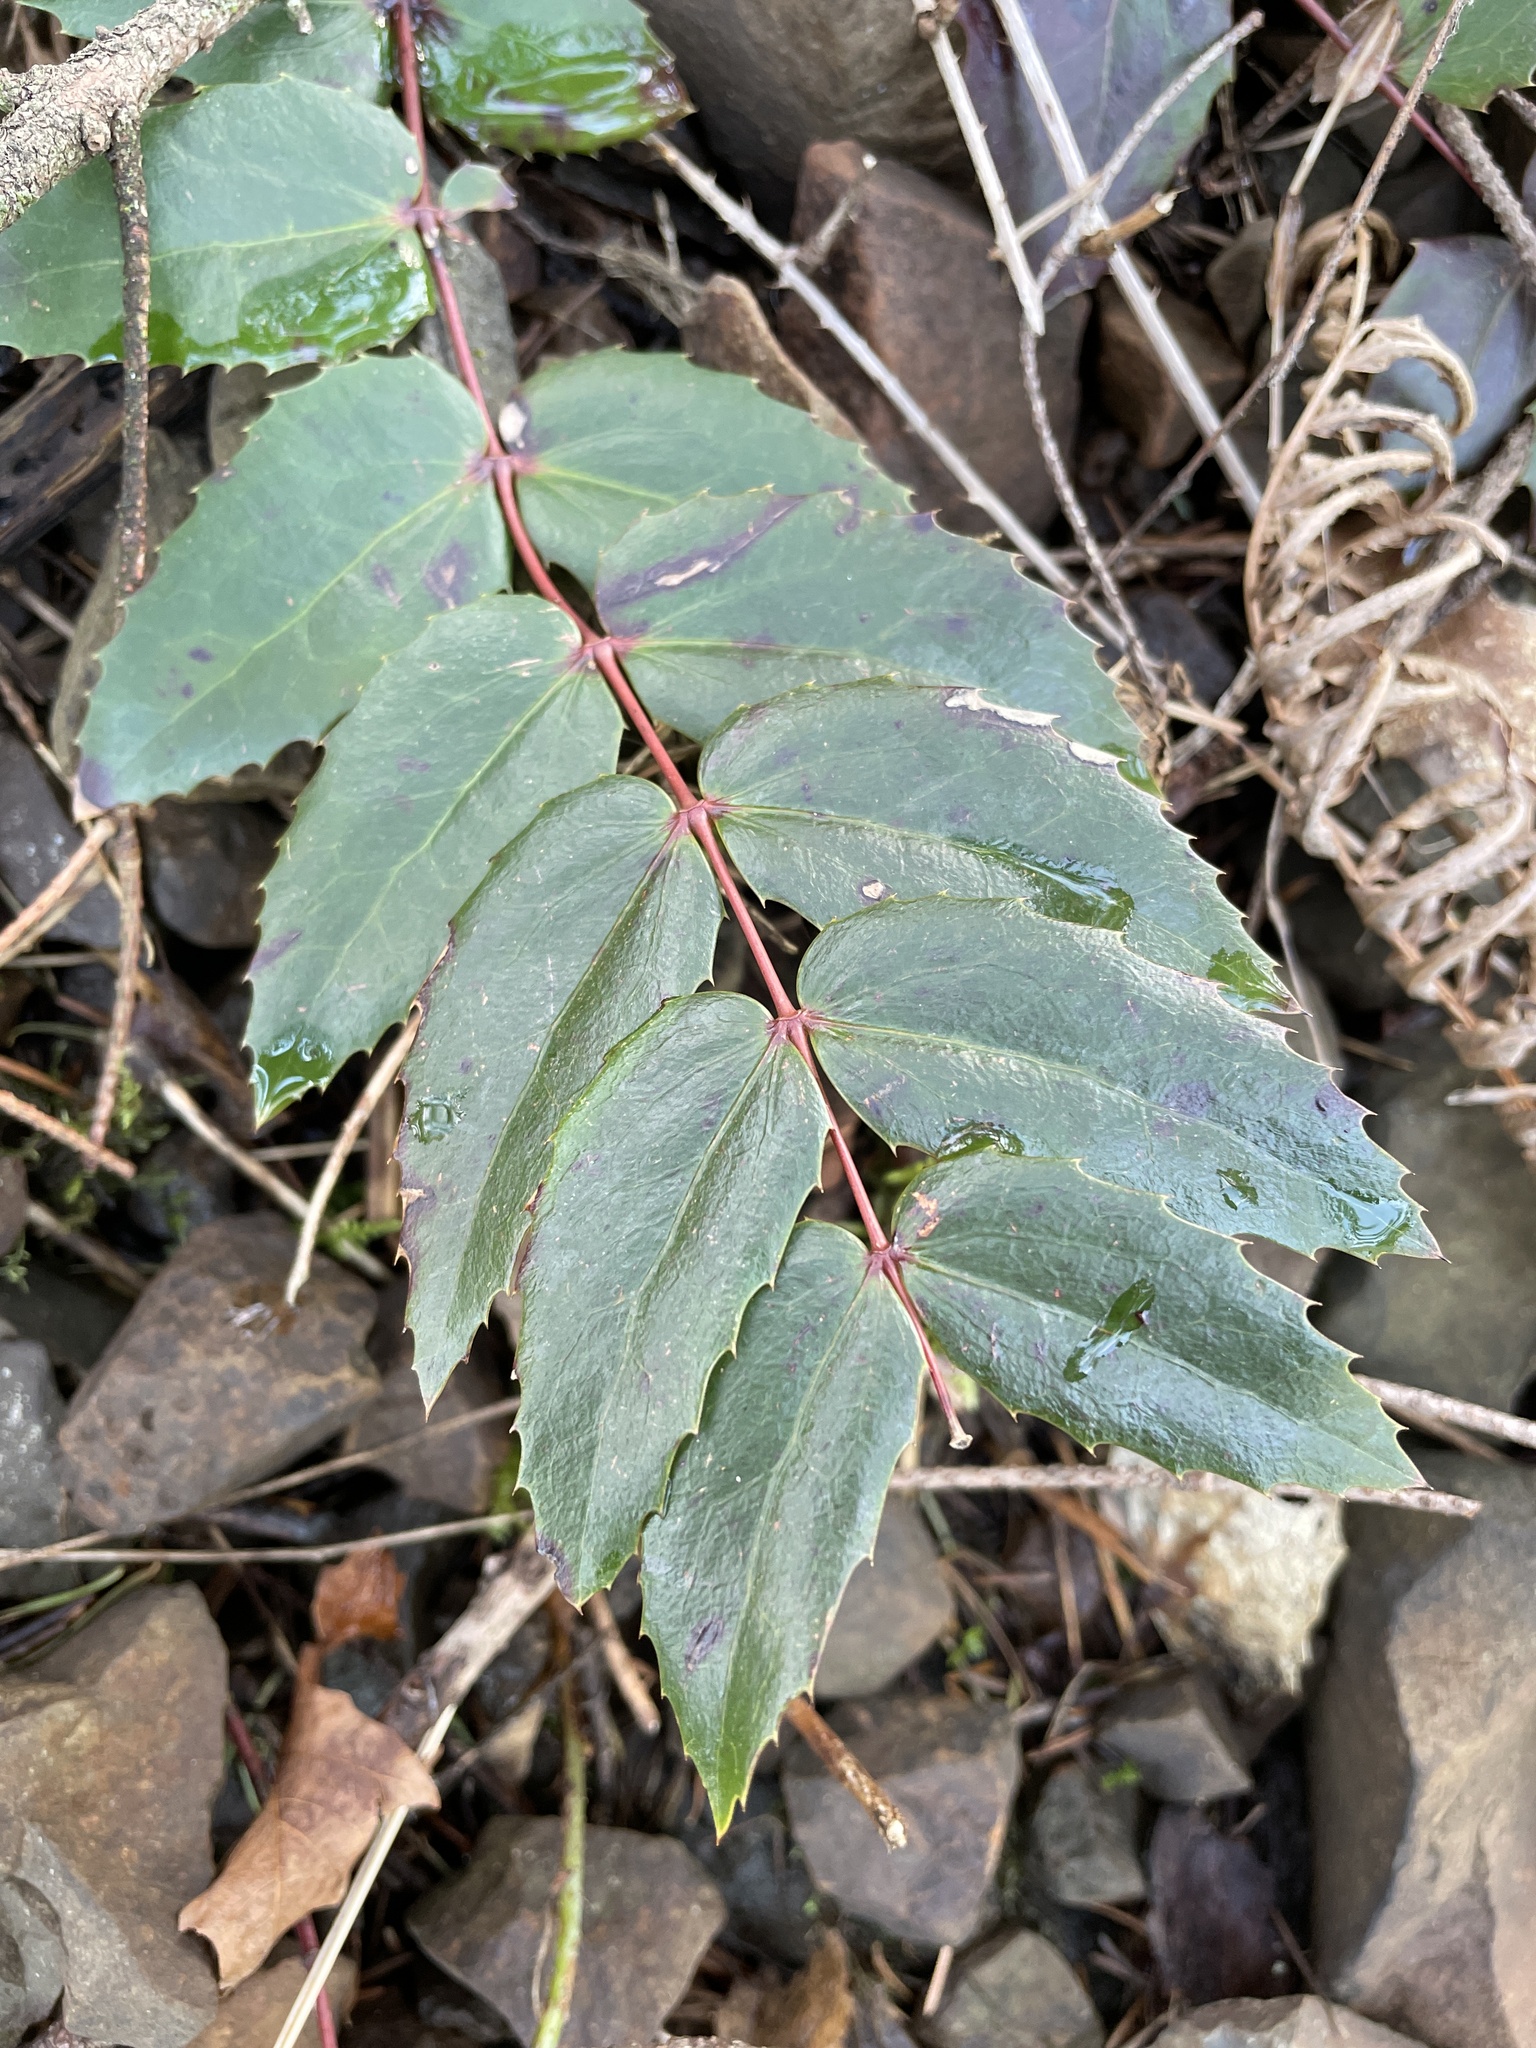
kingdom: Plantae
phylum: Tracheophyta
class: Magnoliopsida
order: Ranunculales
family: Berberidaceae
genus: Mahonia
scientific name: Mahonia nervosa
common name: Cascade oregon-grape
